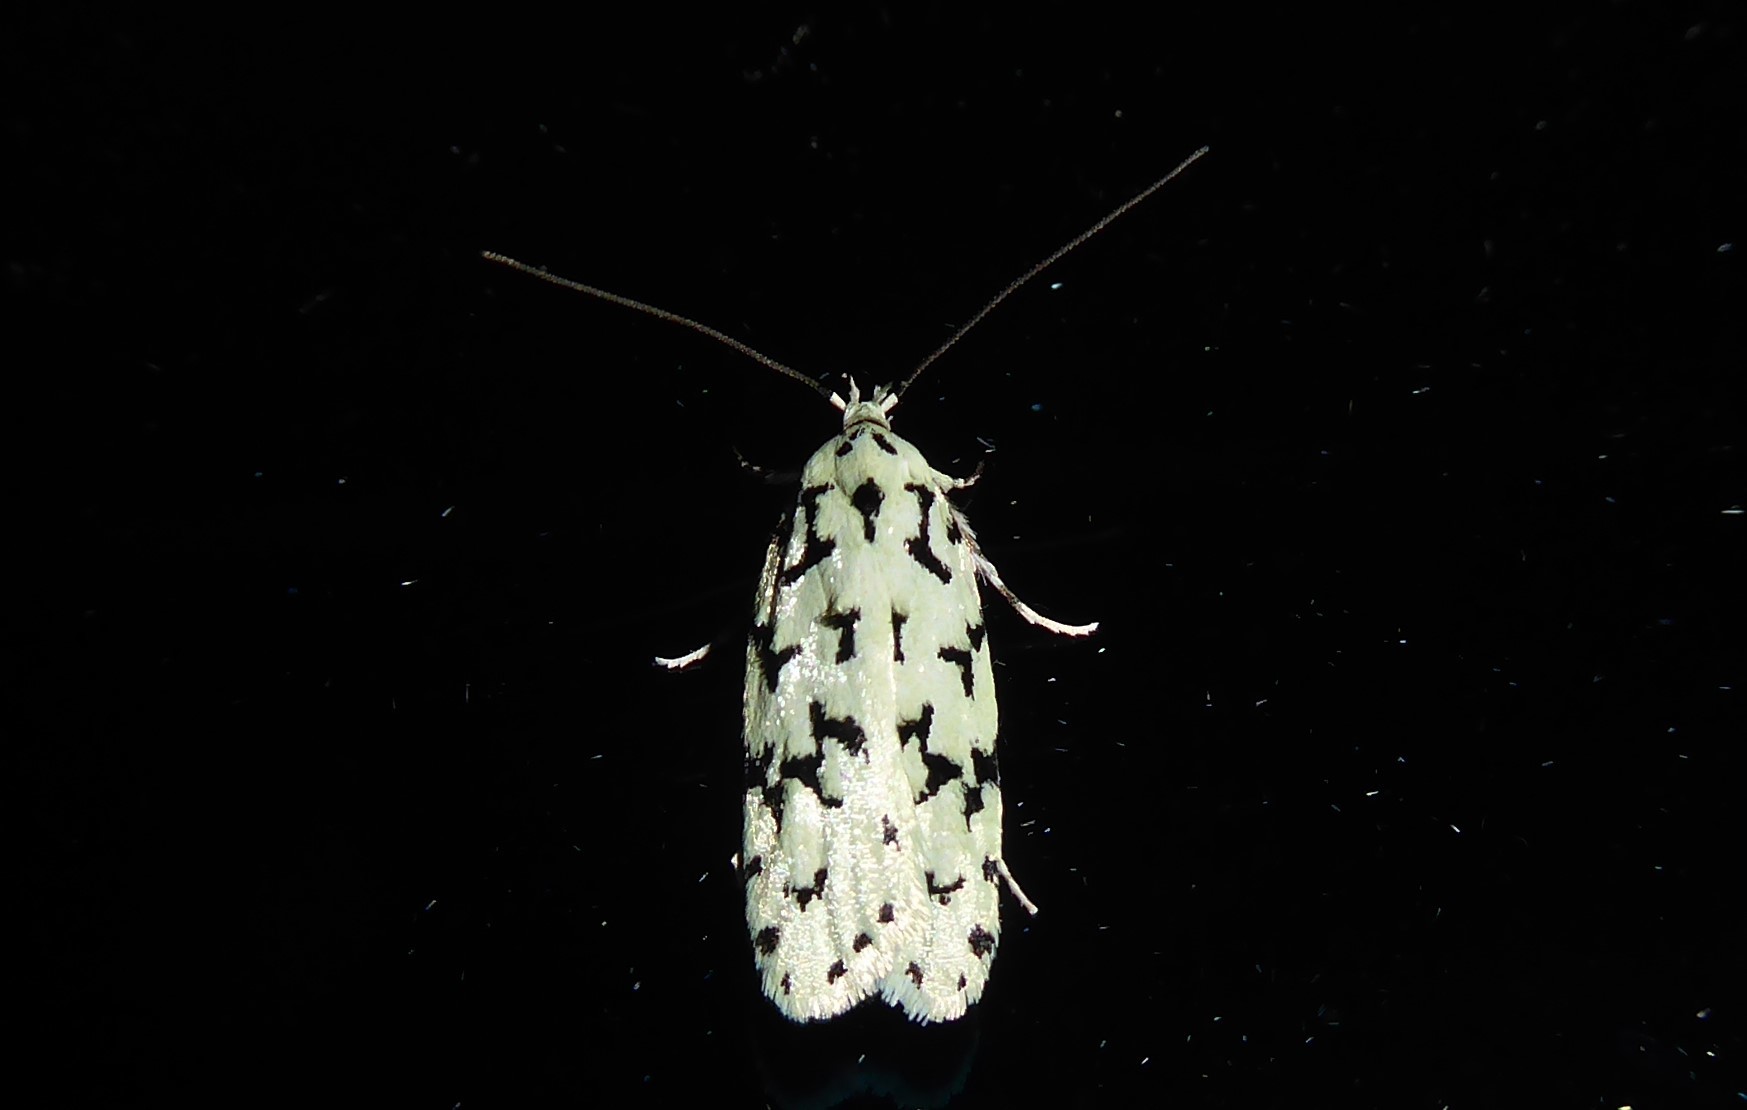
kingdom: Animalia
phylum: Arthropoda
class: Insecta
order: Lepidoptera
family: Oecophoridae
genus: Izatha
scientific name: Izatha huttoni
